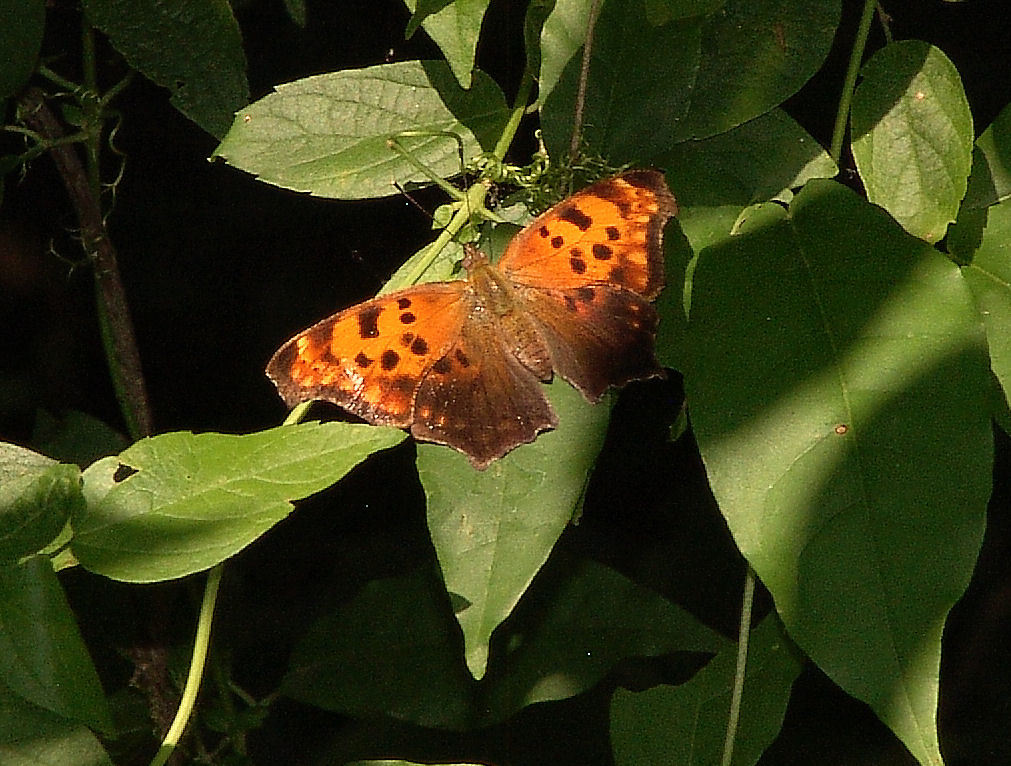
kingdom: Animalia
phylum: Arthropoda
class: Insecta
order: Lepidoptera
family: Nymphalidae
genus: Polygonia
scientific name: Polygonia interrogationis
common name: Question mark
